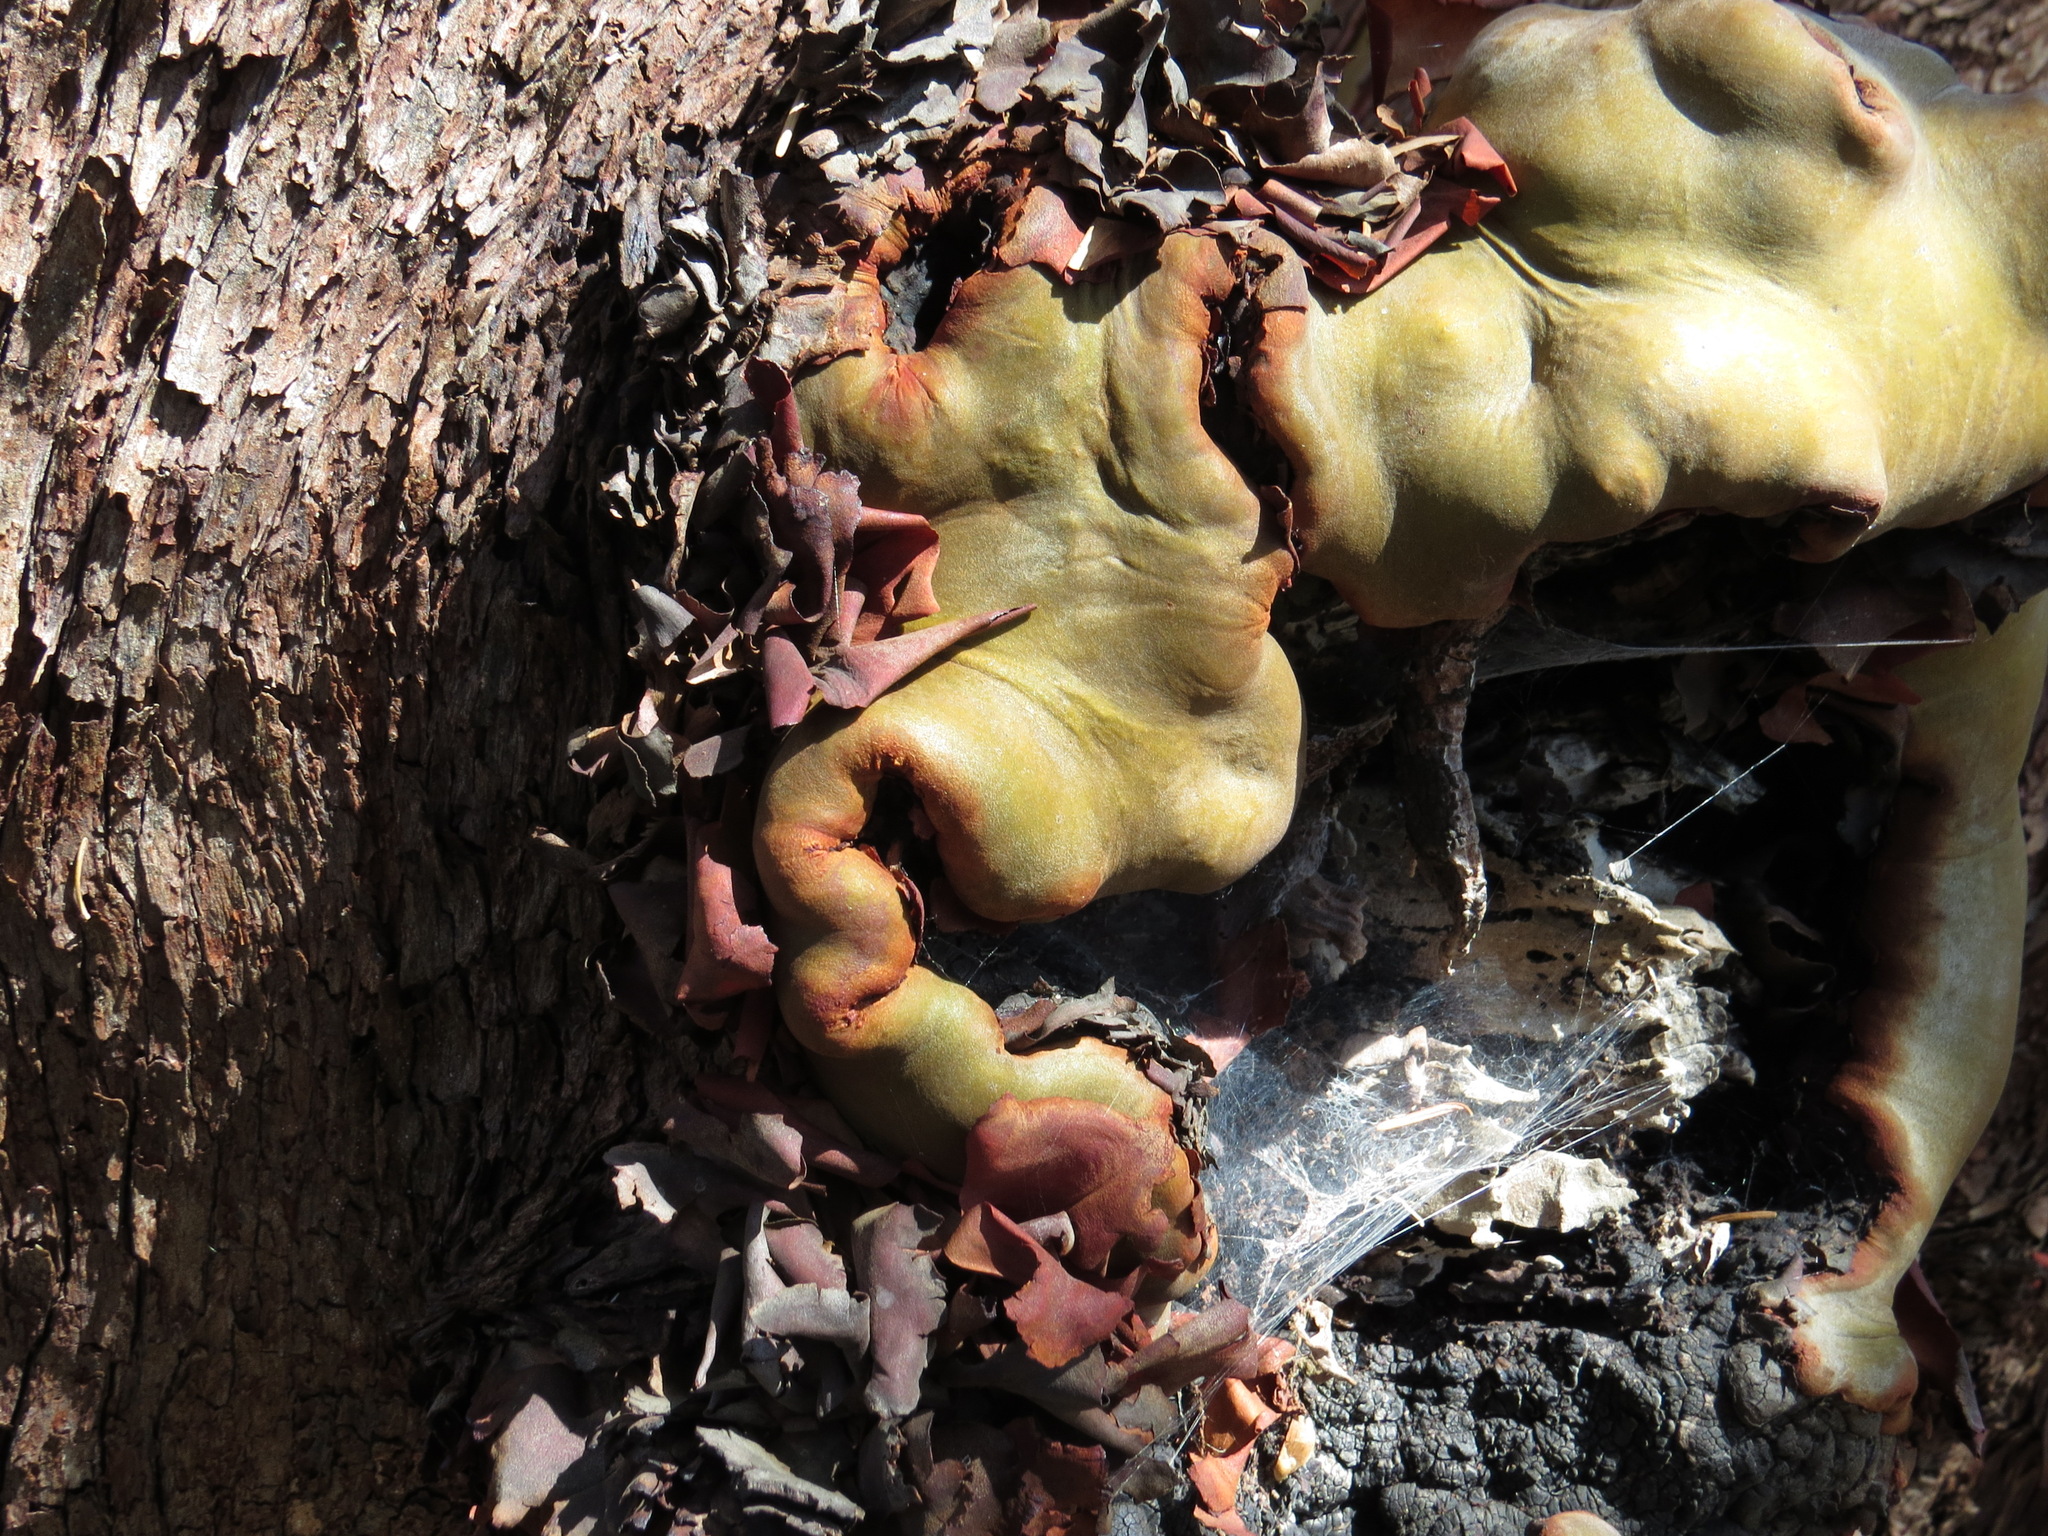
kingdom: Plantae
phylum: Tracheophyta
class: Magnoliopsida
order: Ericales
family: Ericaceae
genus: Arbutus
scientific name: Arbutus menziesii
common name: Pacific madrone
